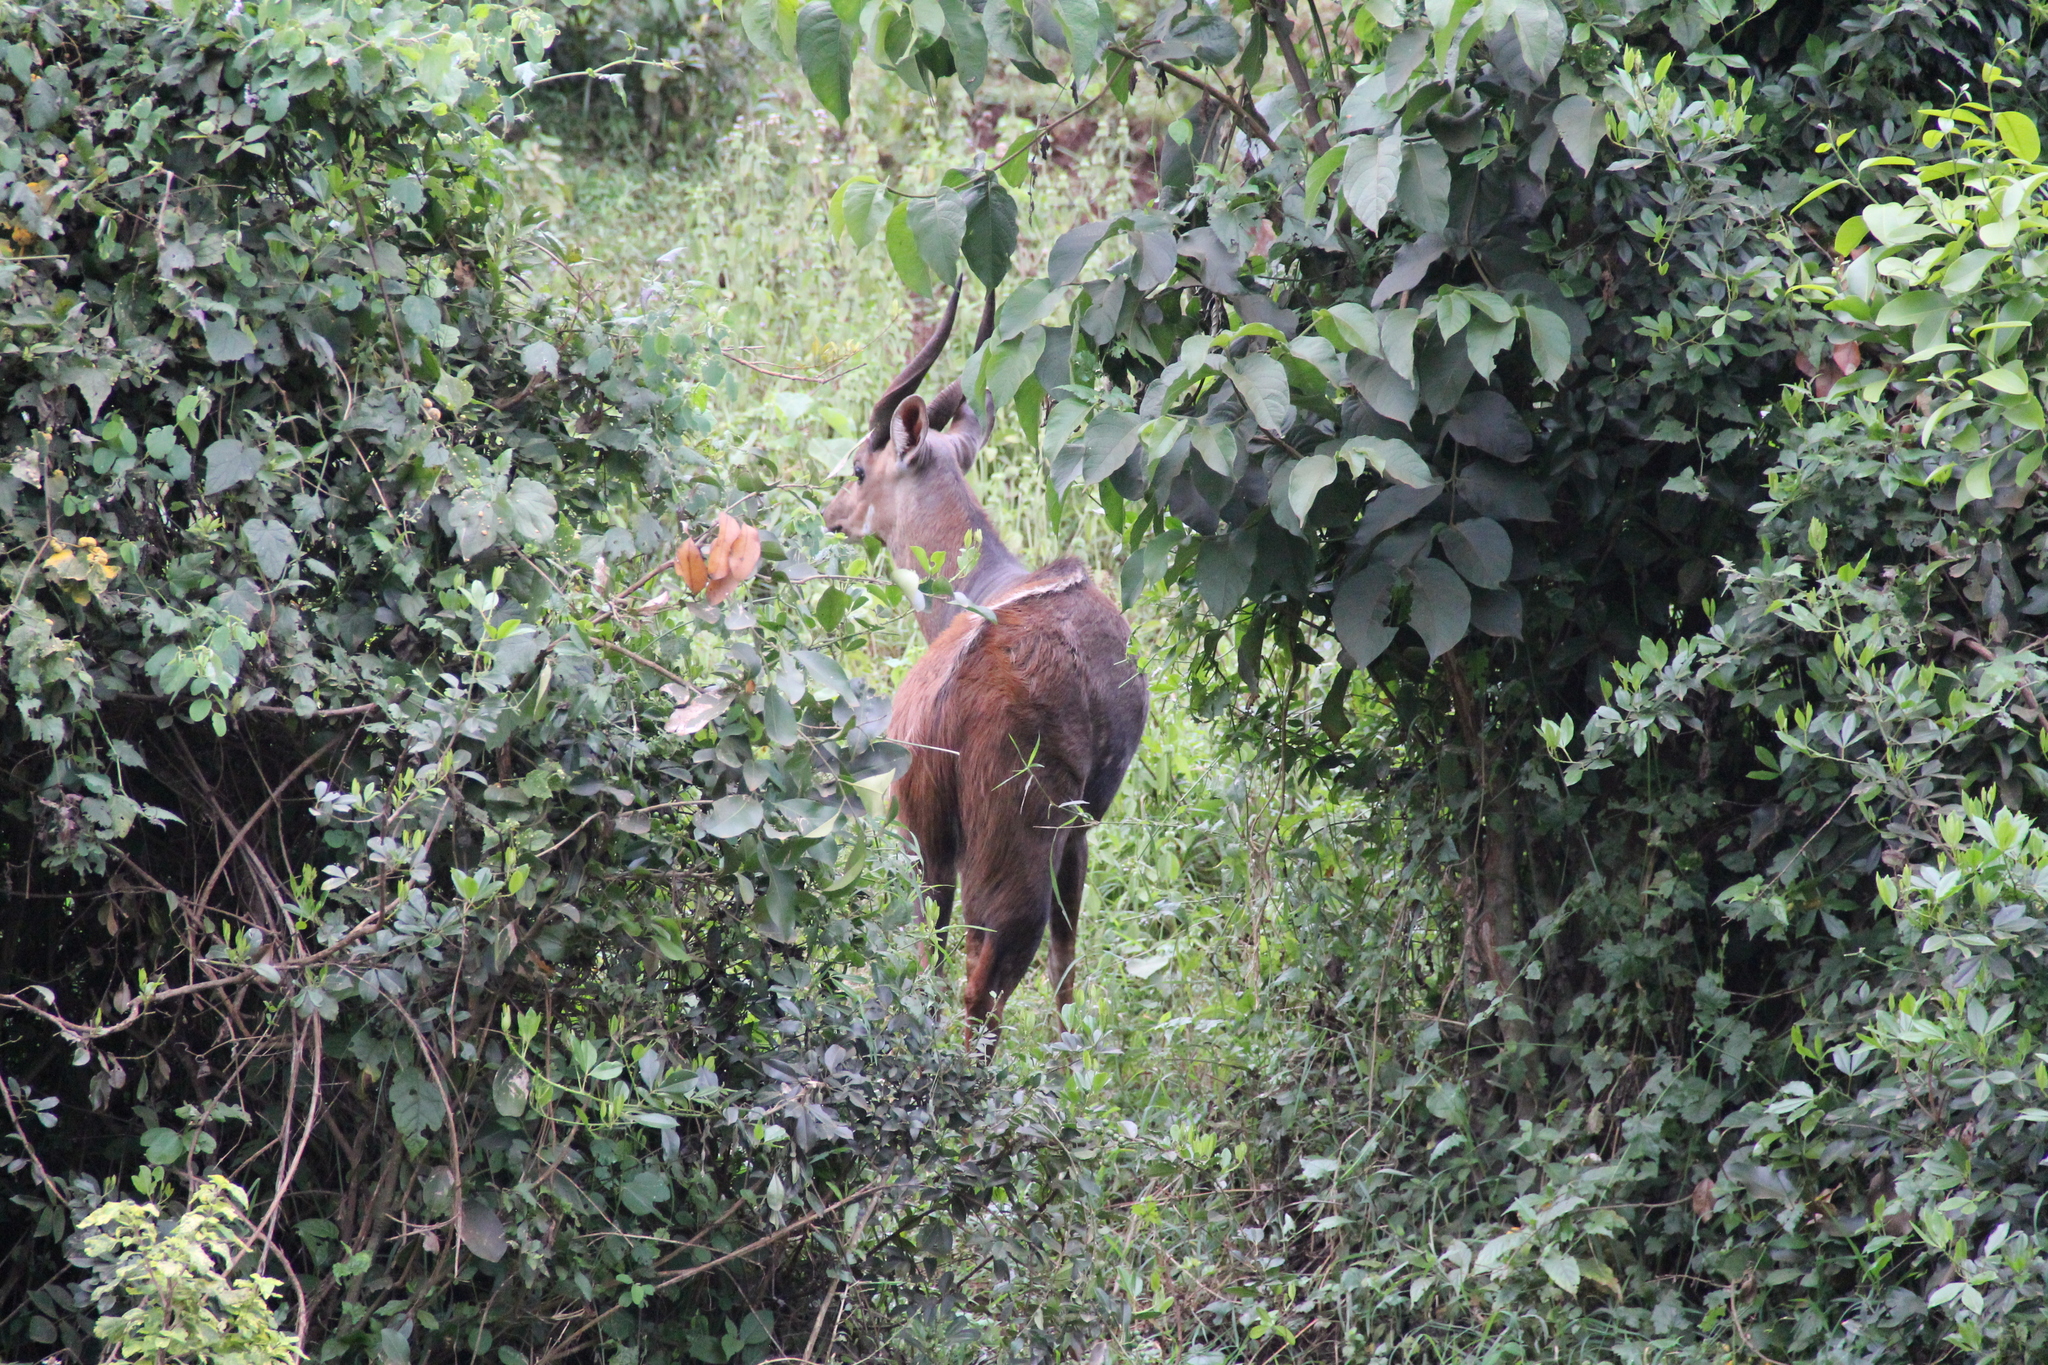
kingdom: Animalia
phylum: Chordata
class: Mammalia
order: Artiodactyla
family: Bovidae
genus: Tragelaphus
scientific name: Tragelaphus scriptus
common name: Bushbuck
